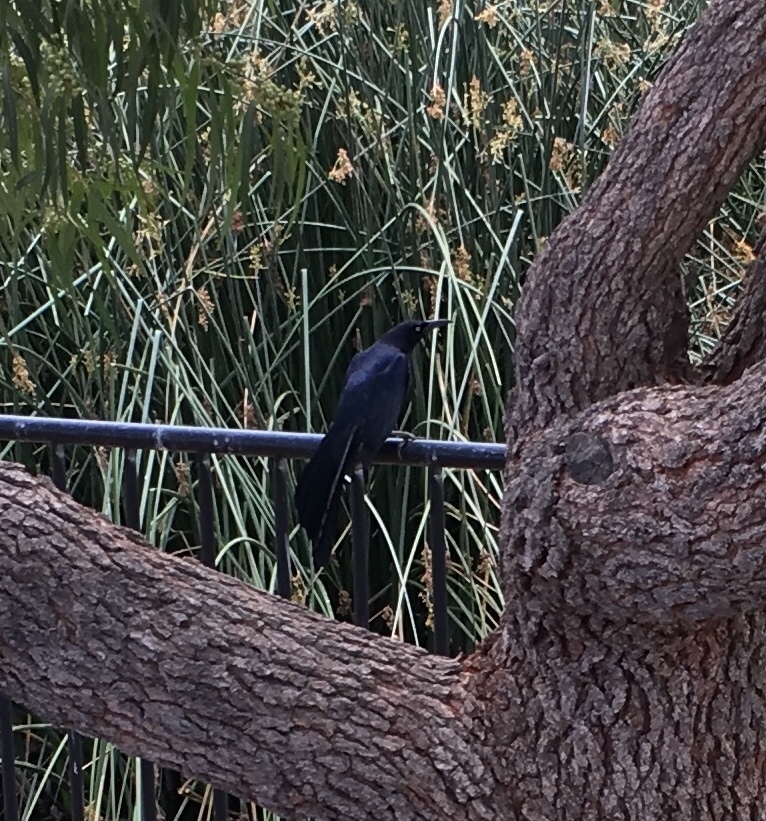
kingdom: Animalia
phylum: Chordata
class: Aves
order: Passeriformes
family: Icteridae
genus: Quiscalus
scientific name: Quiscalus mexicanus
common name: Great-tailed grackle
